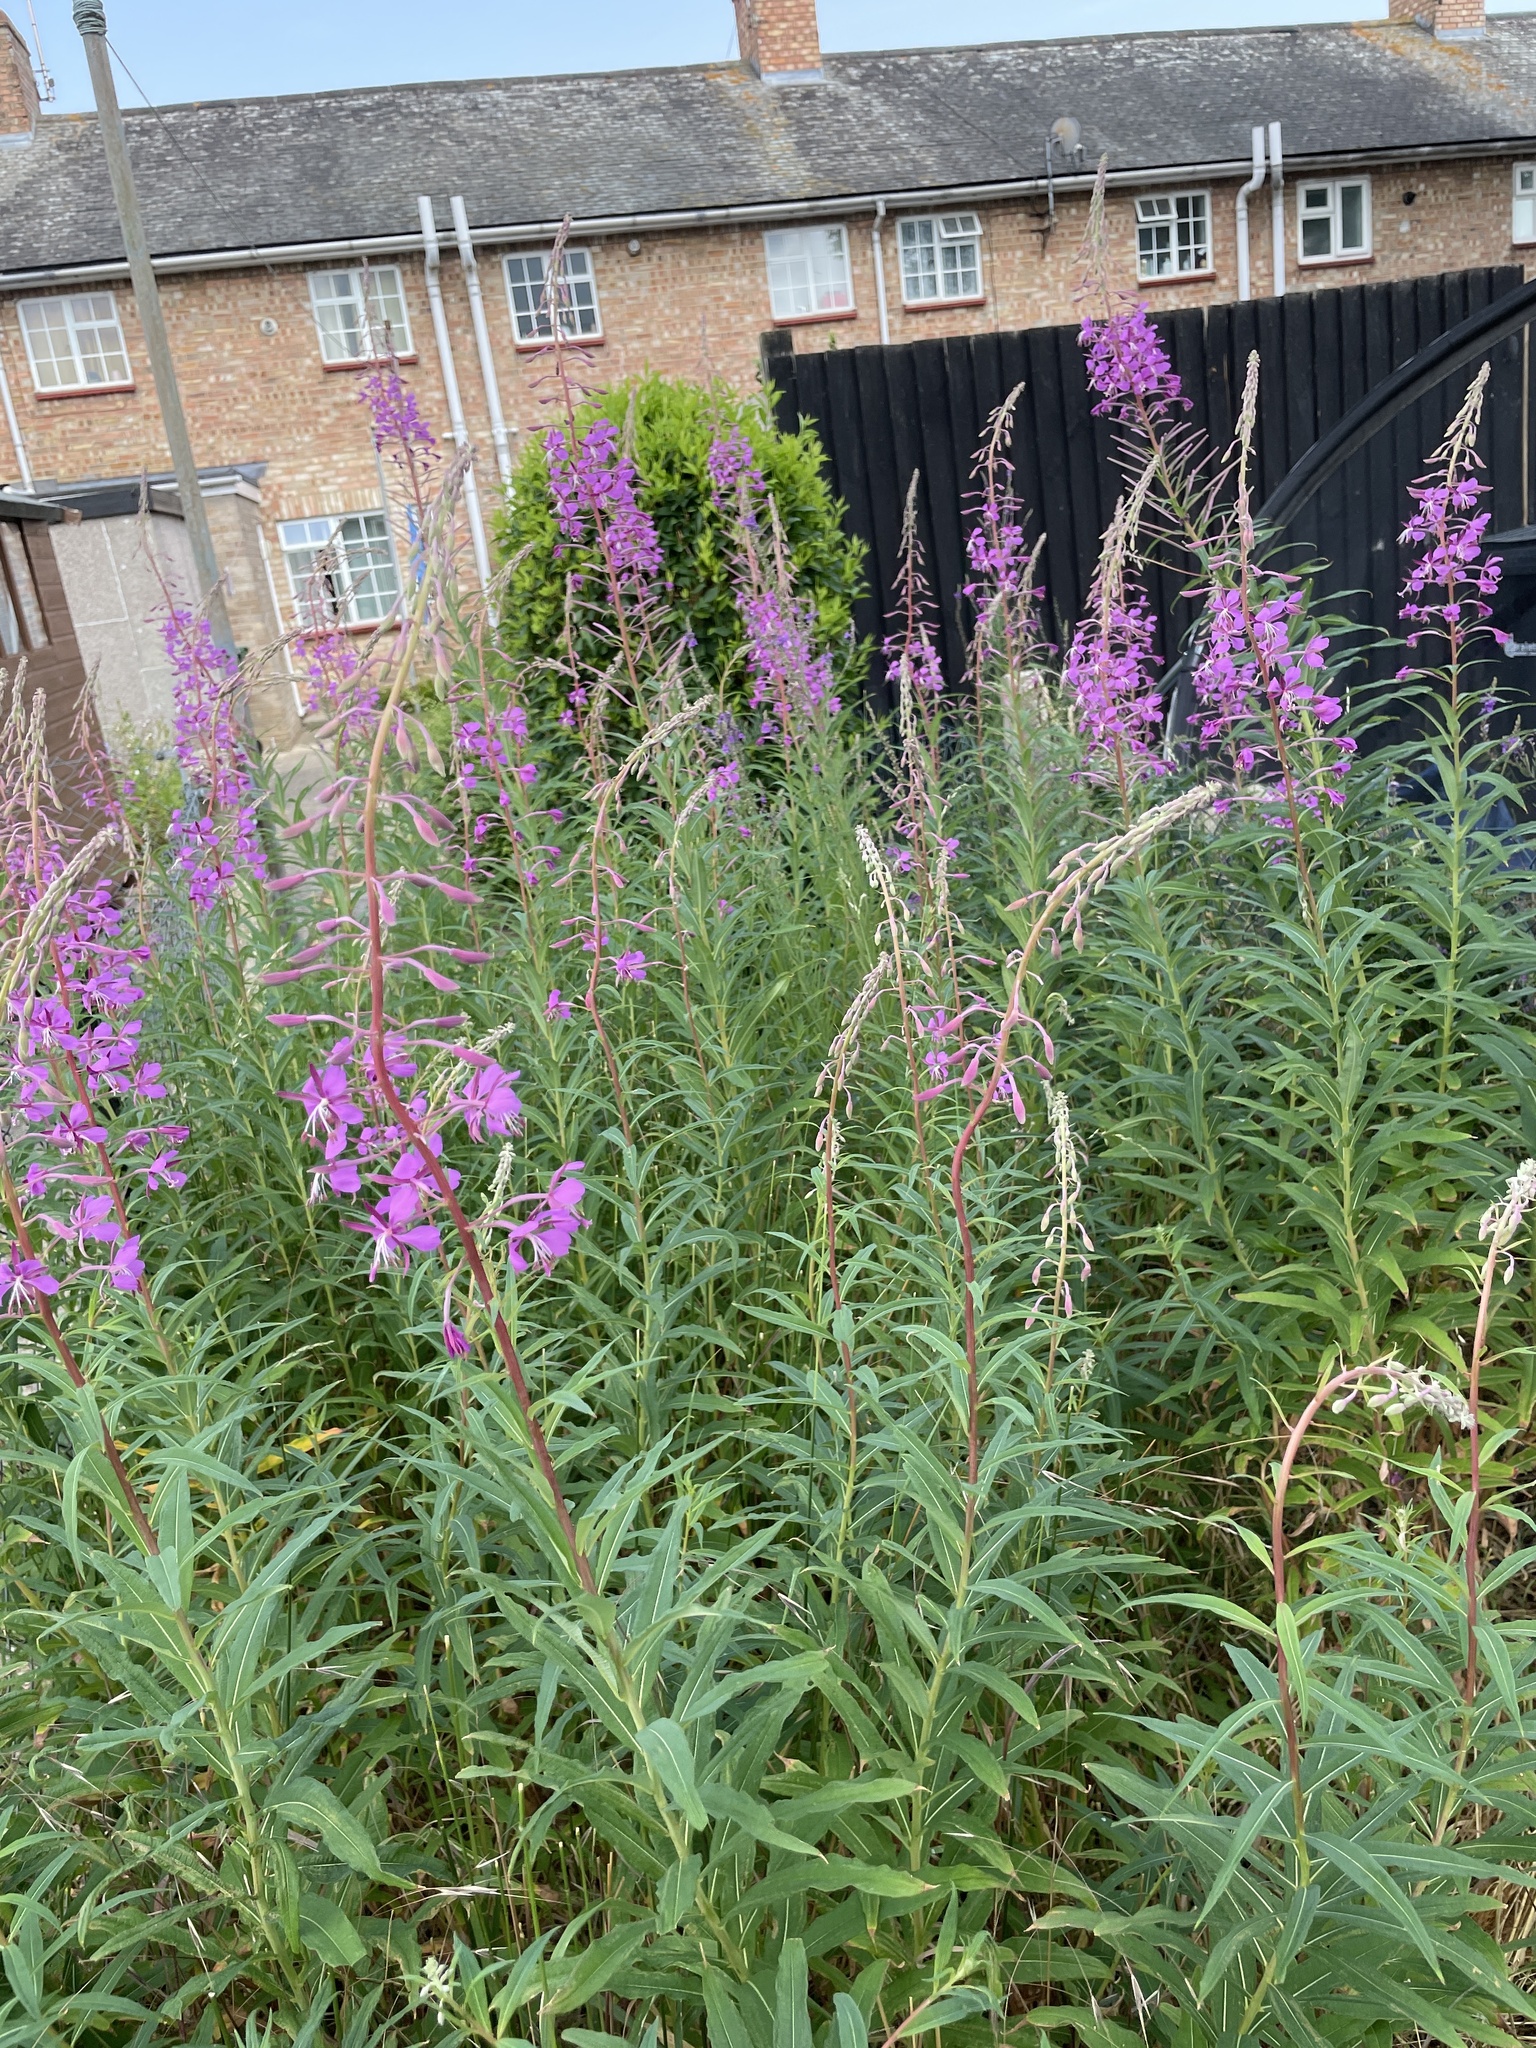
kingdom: Plantae
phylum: Tracheophyta
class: Magnoliopsida
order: Myrtales
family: Onagraceae
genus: Chamaenerion
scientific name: Chamaenerion angustifolium
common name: Fireweed
